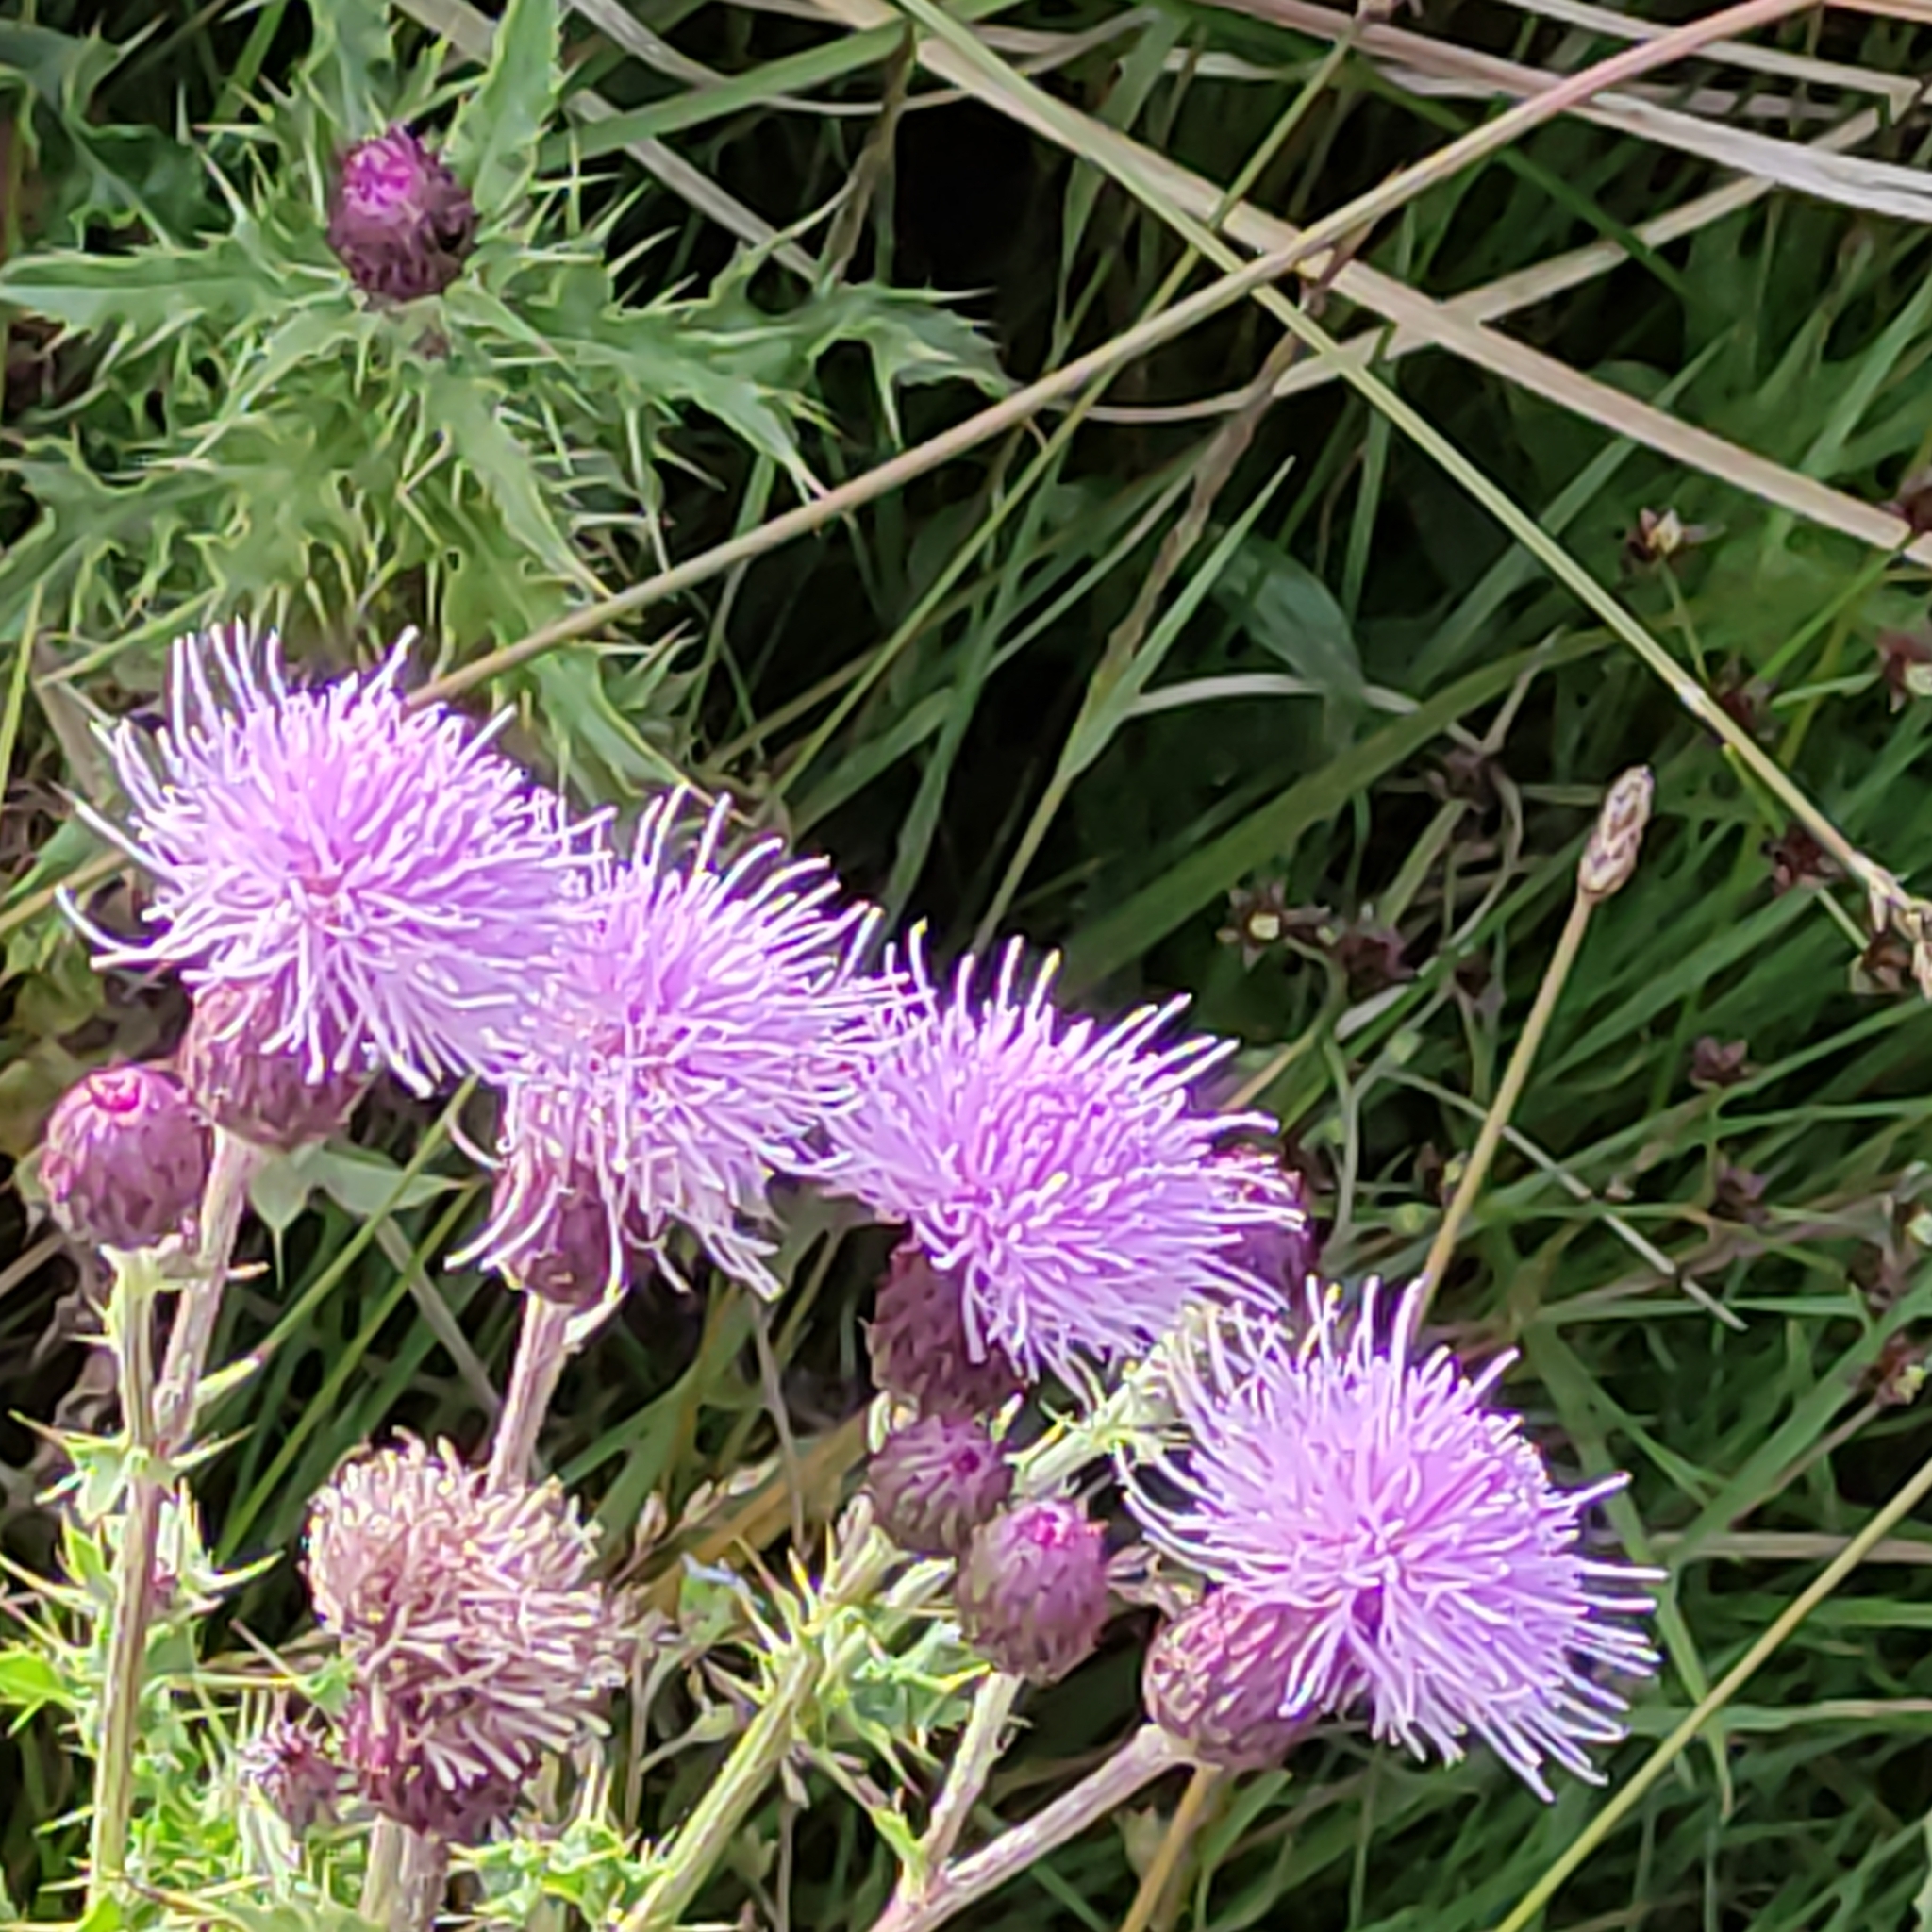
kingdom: Plantae
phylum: Tracheophyta
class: Magnoliopsida
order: Asterales
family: Asteraceae
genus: Cirsium
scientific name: Cirsium arvense
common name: Creeping thistle
